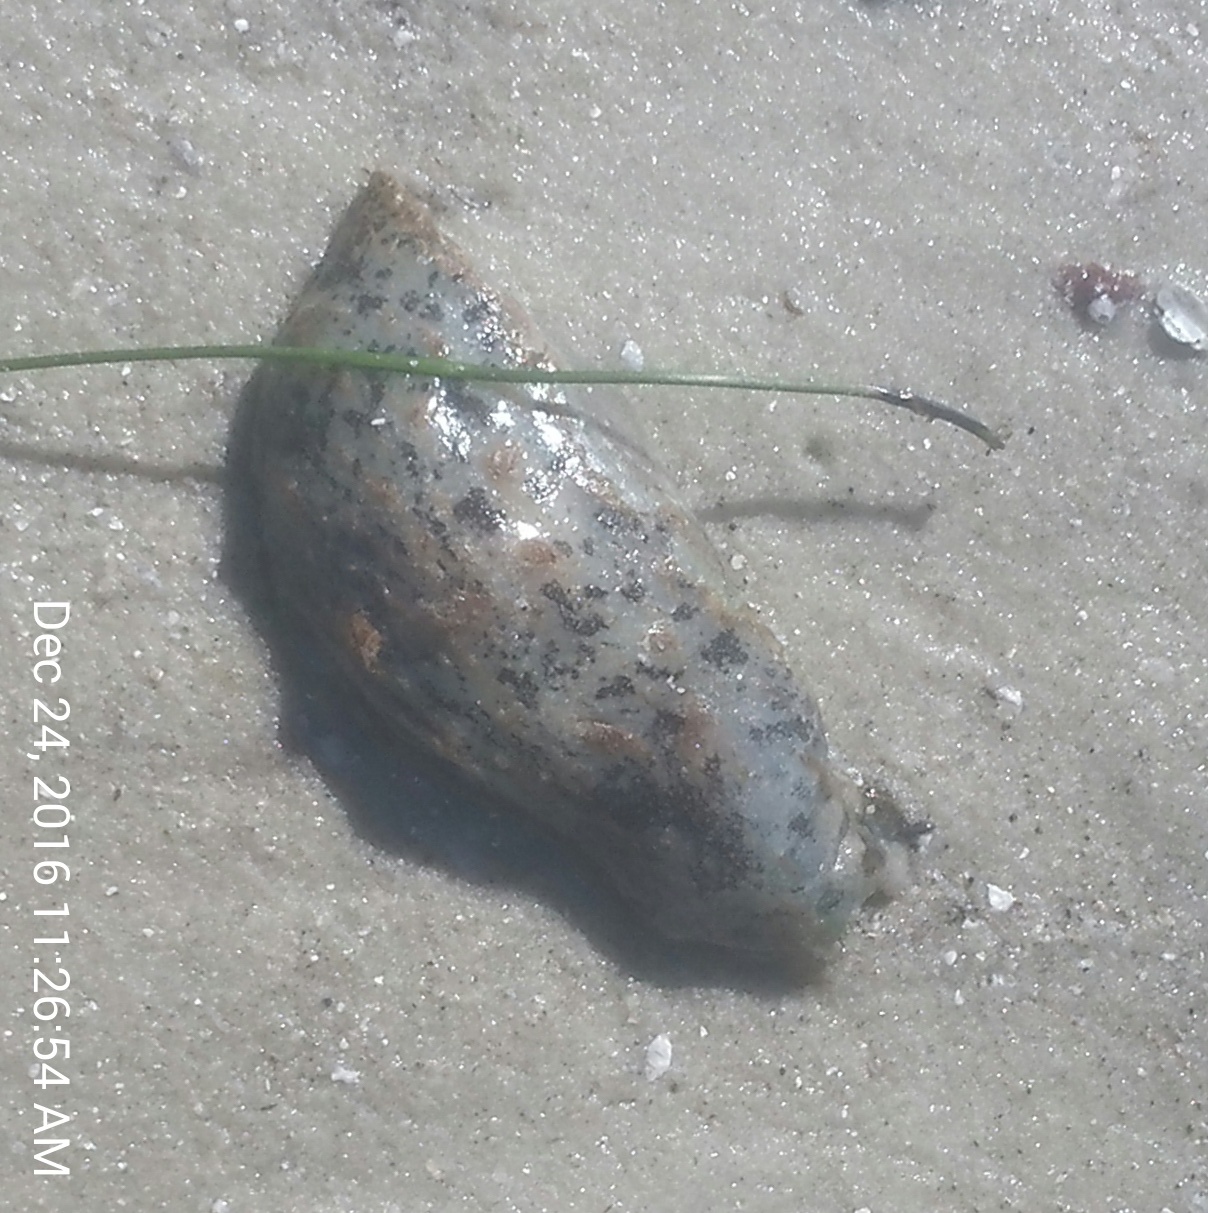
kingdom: Animalia
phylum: Mollusca
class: Gastropoda
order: Aplysiida
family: Aplysiidae
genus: Bursatella
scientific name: Bursatella leachii
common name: Shaggy sea hare
